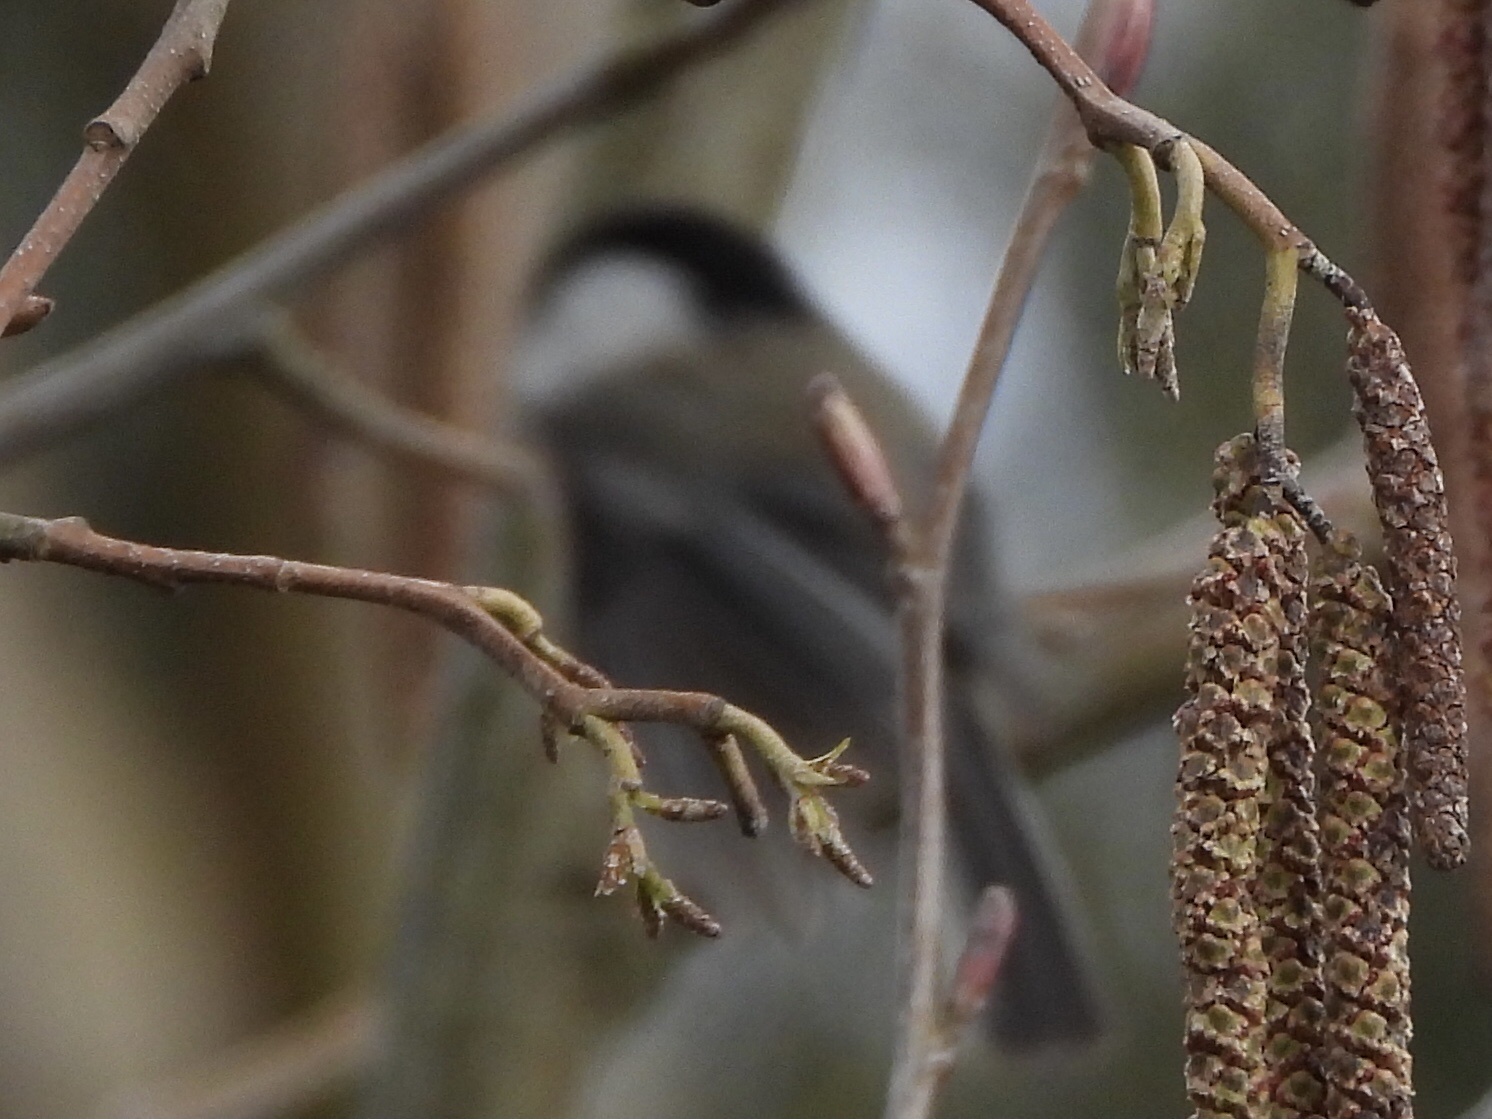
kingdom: Animalia
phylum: Chordata
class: Aves
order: Passeriformes
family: Paridae
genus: Poecile
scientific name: Poecile atricapillus
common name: Black-capped chickadee
